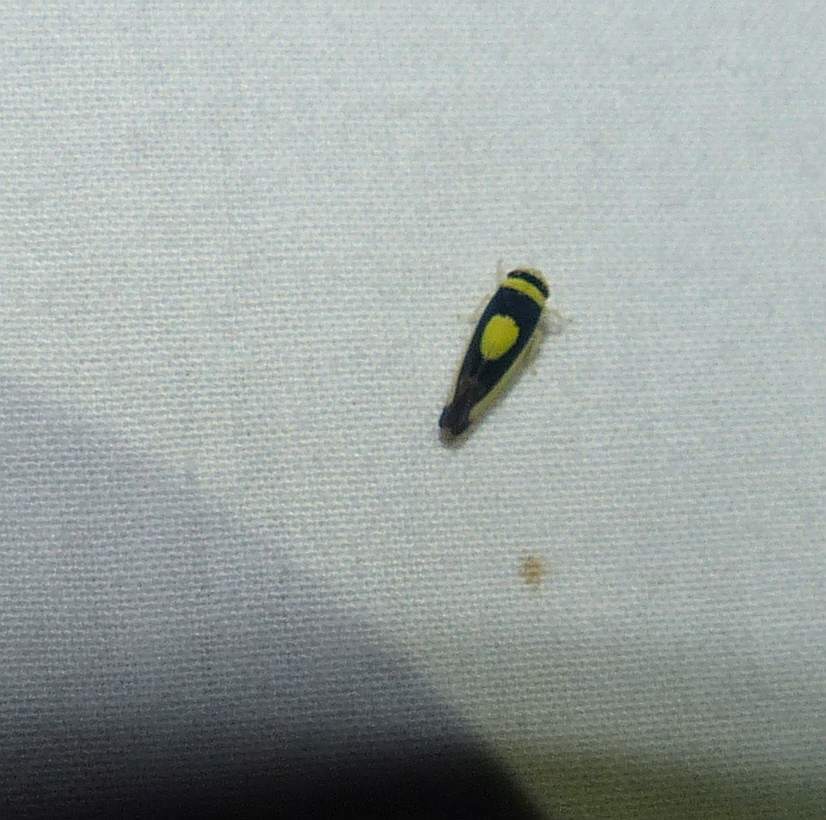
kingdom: Animalia
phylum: Arthropoda
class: Insecta
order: Hemiptera
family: Cicadellidae
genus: Colladonus
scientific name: Colladonus clitellarius
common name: The saddleback leafhopper
